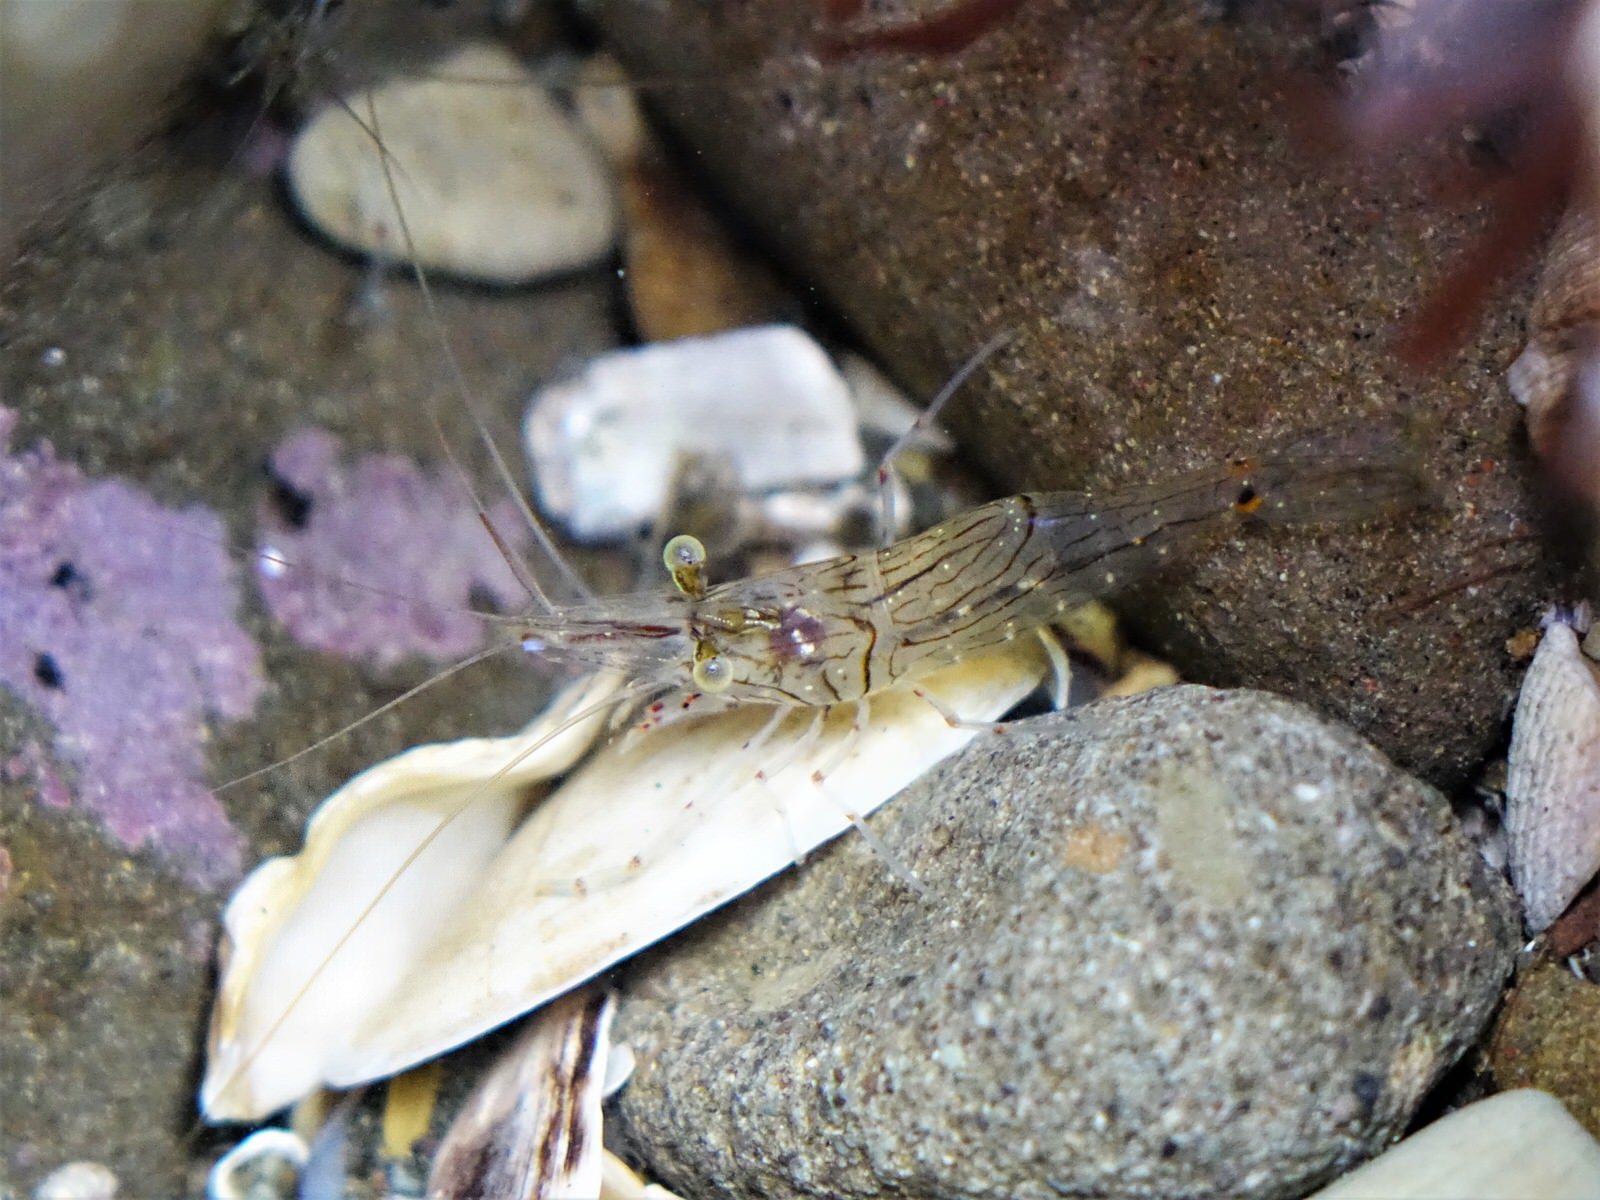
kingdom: Animalia
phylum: Arthropoda
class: Malacostraca
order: Decapoda
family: Palaemonidae
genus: Palaemon
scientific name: Palaemon affinis
